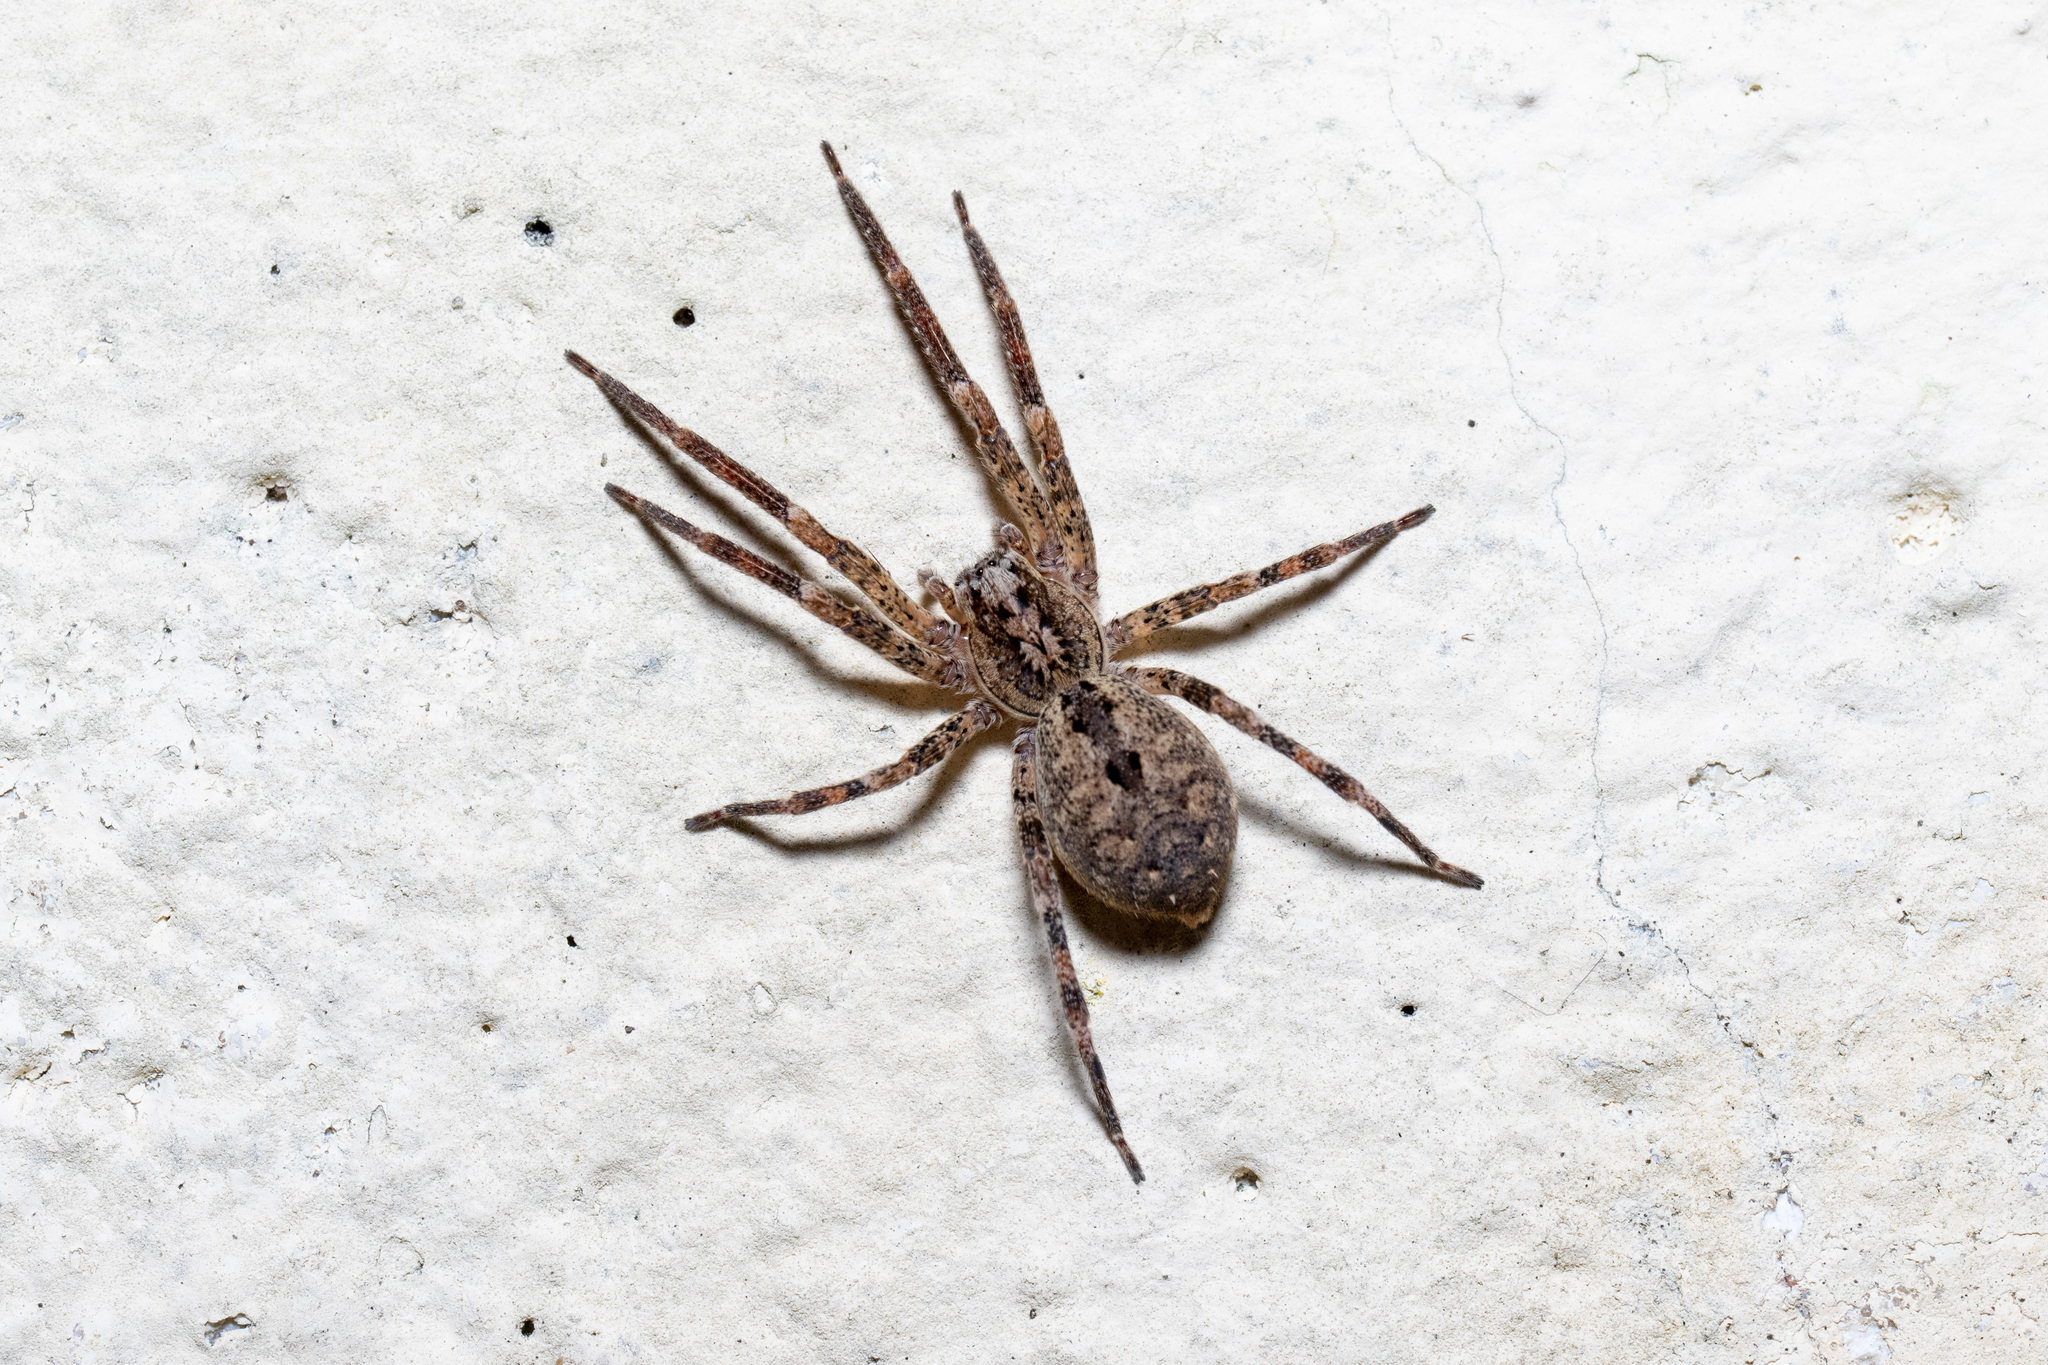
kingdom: Animalia
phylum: Arthropoda
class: Arachnida
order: Araneae
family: Zoropsidae
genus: Zoropsis
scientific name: Zoropsis spinimana
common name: Zoropsid spider
